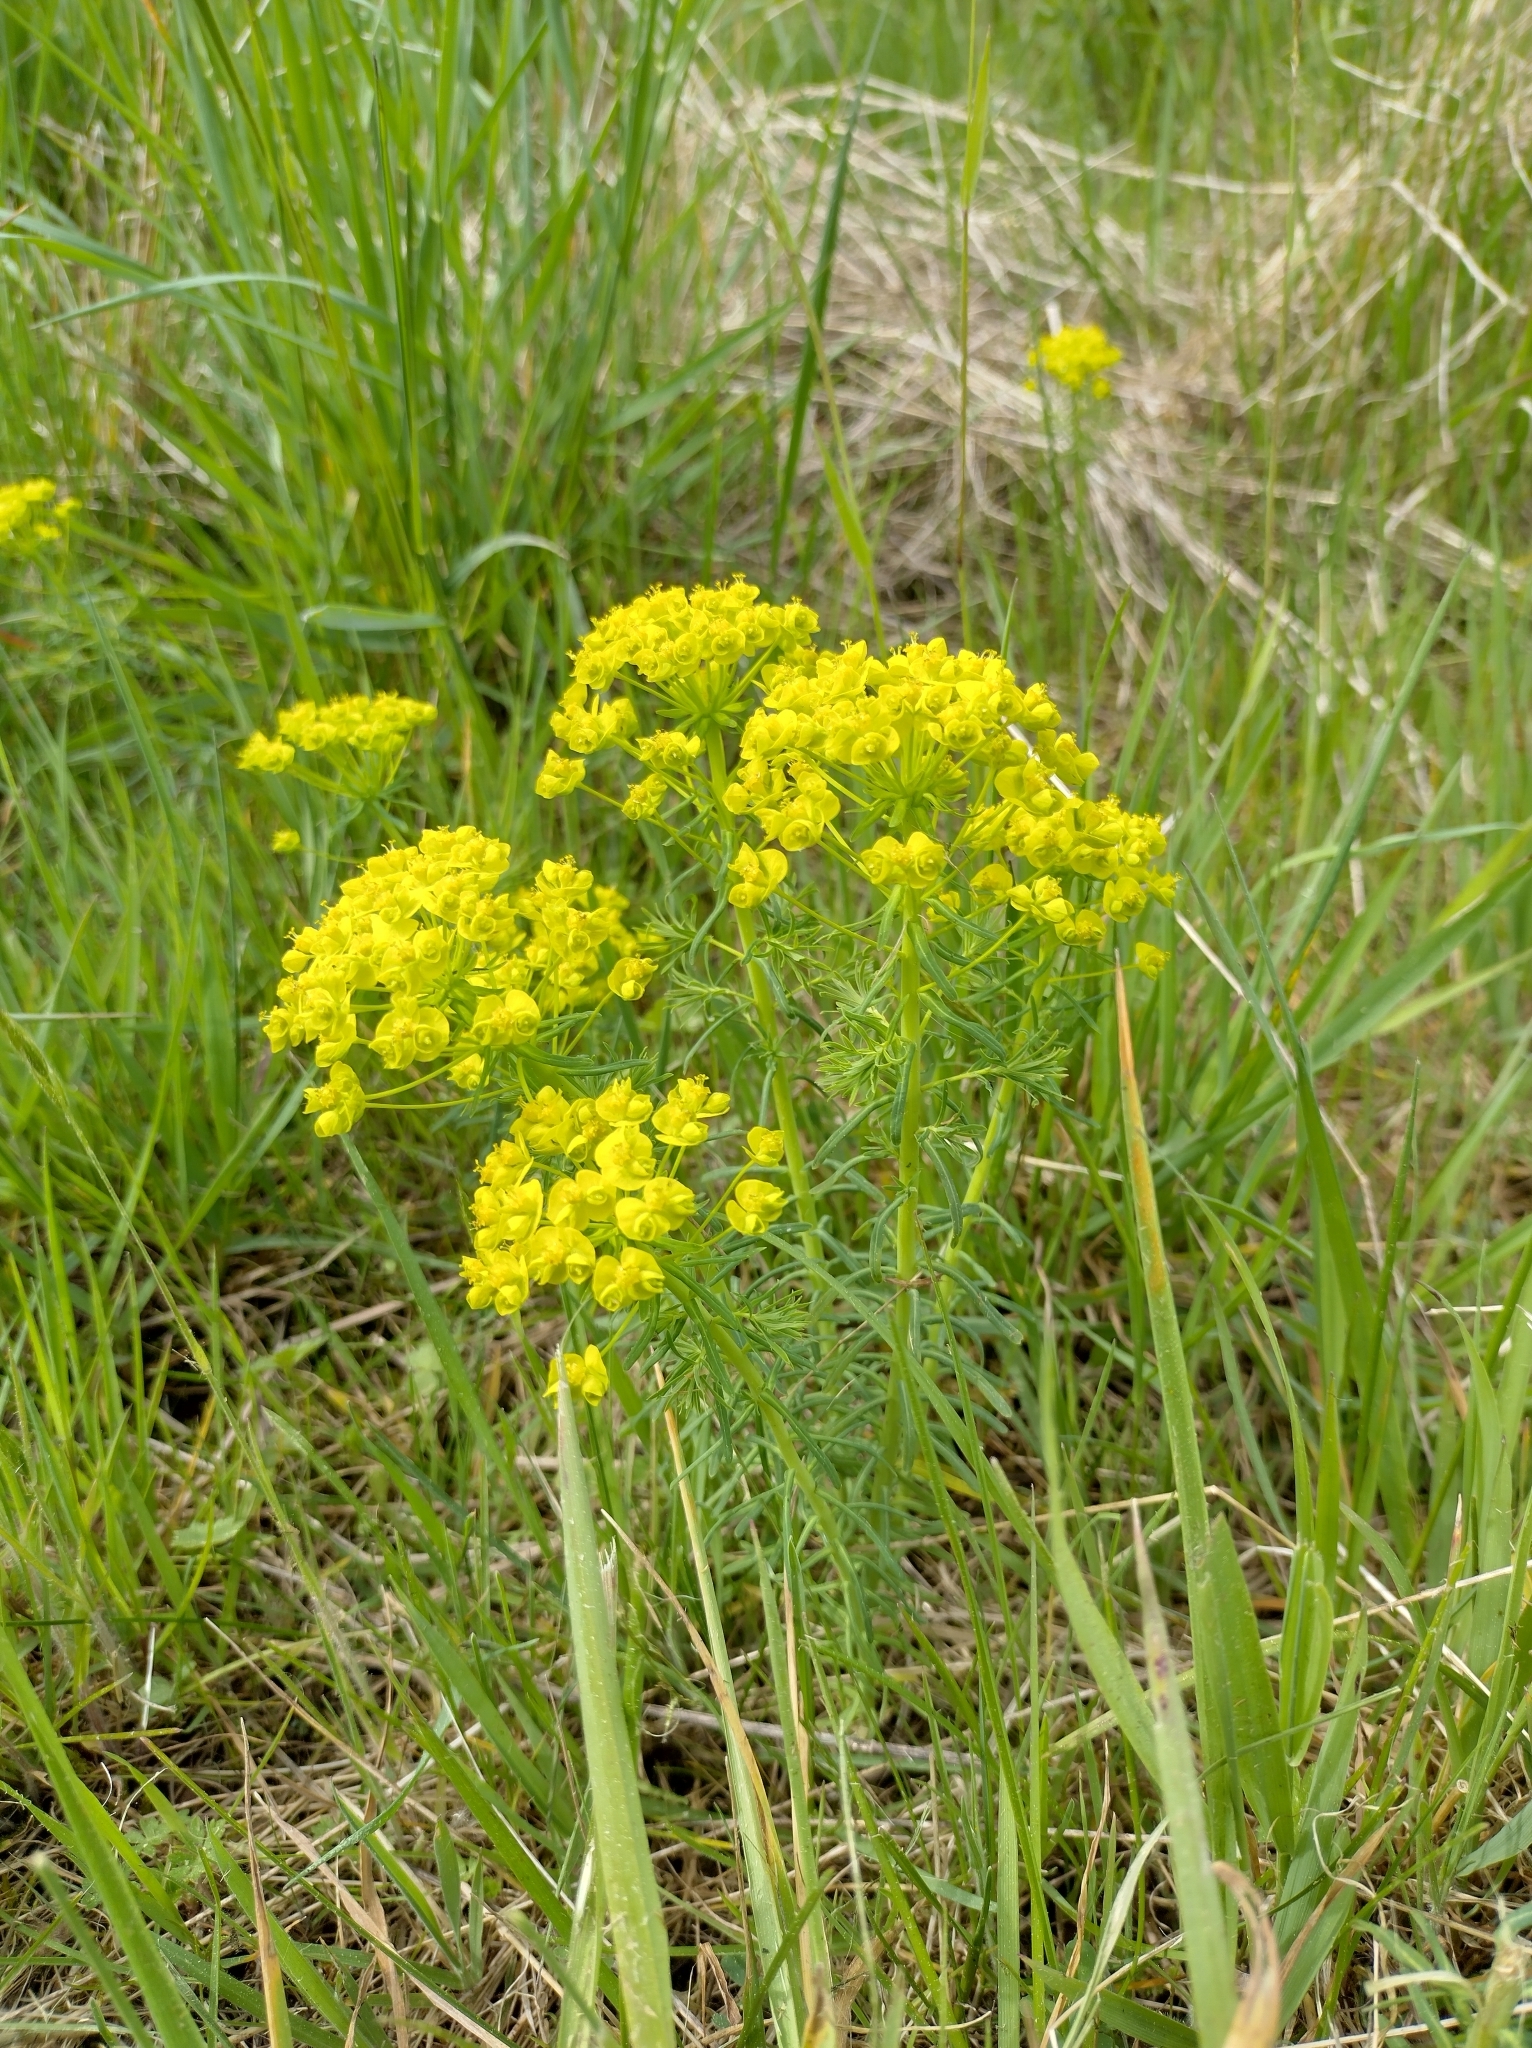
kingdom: Plantae
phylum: Tracheophyta
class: Magnoliopsida
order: Malpighiales
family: Euphorbiaceae
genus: Euphorbia
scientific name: Euphorbia cyparissias
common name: Cypress spurge
